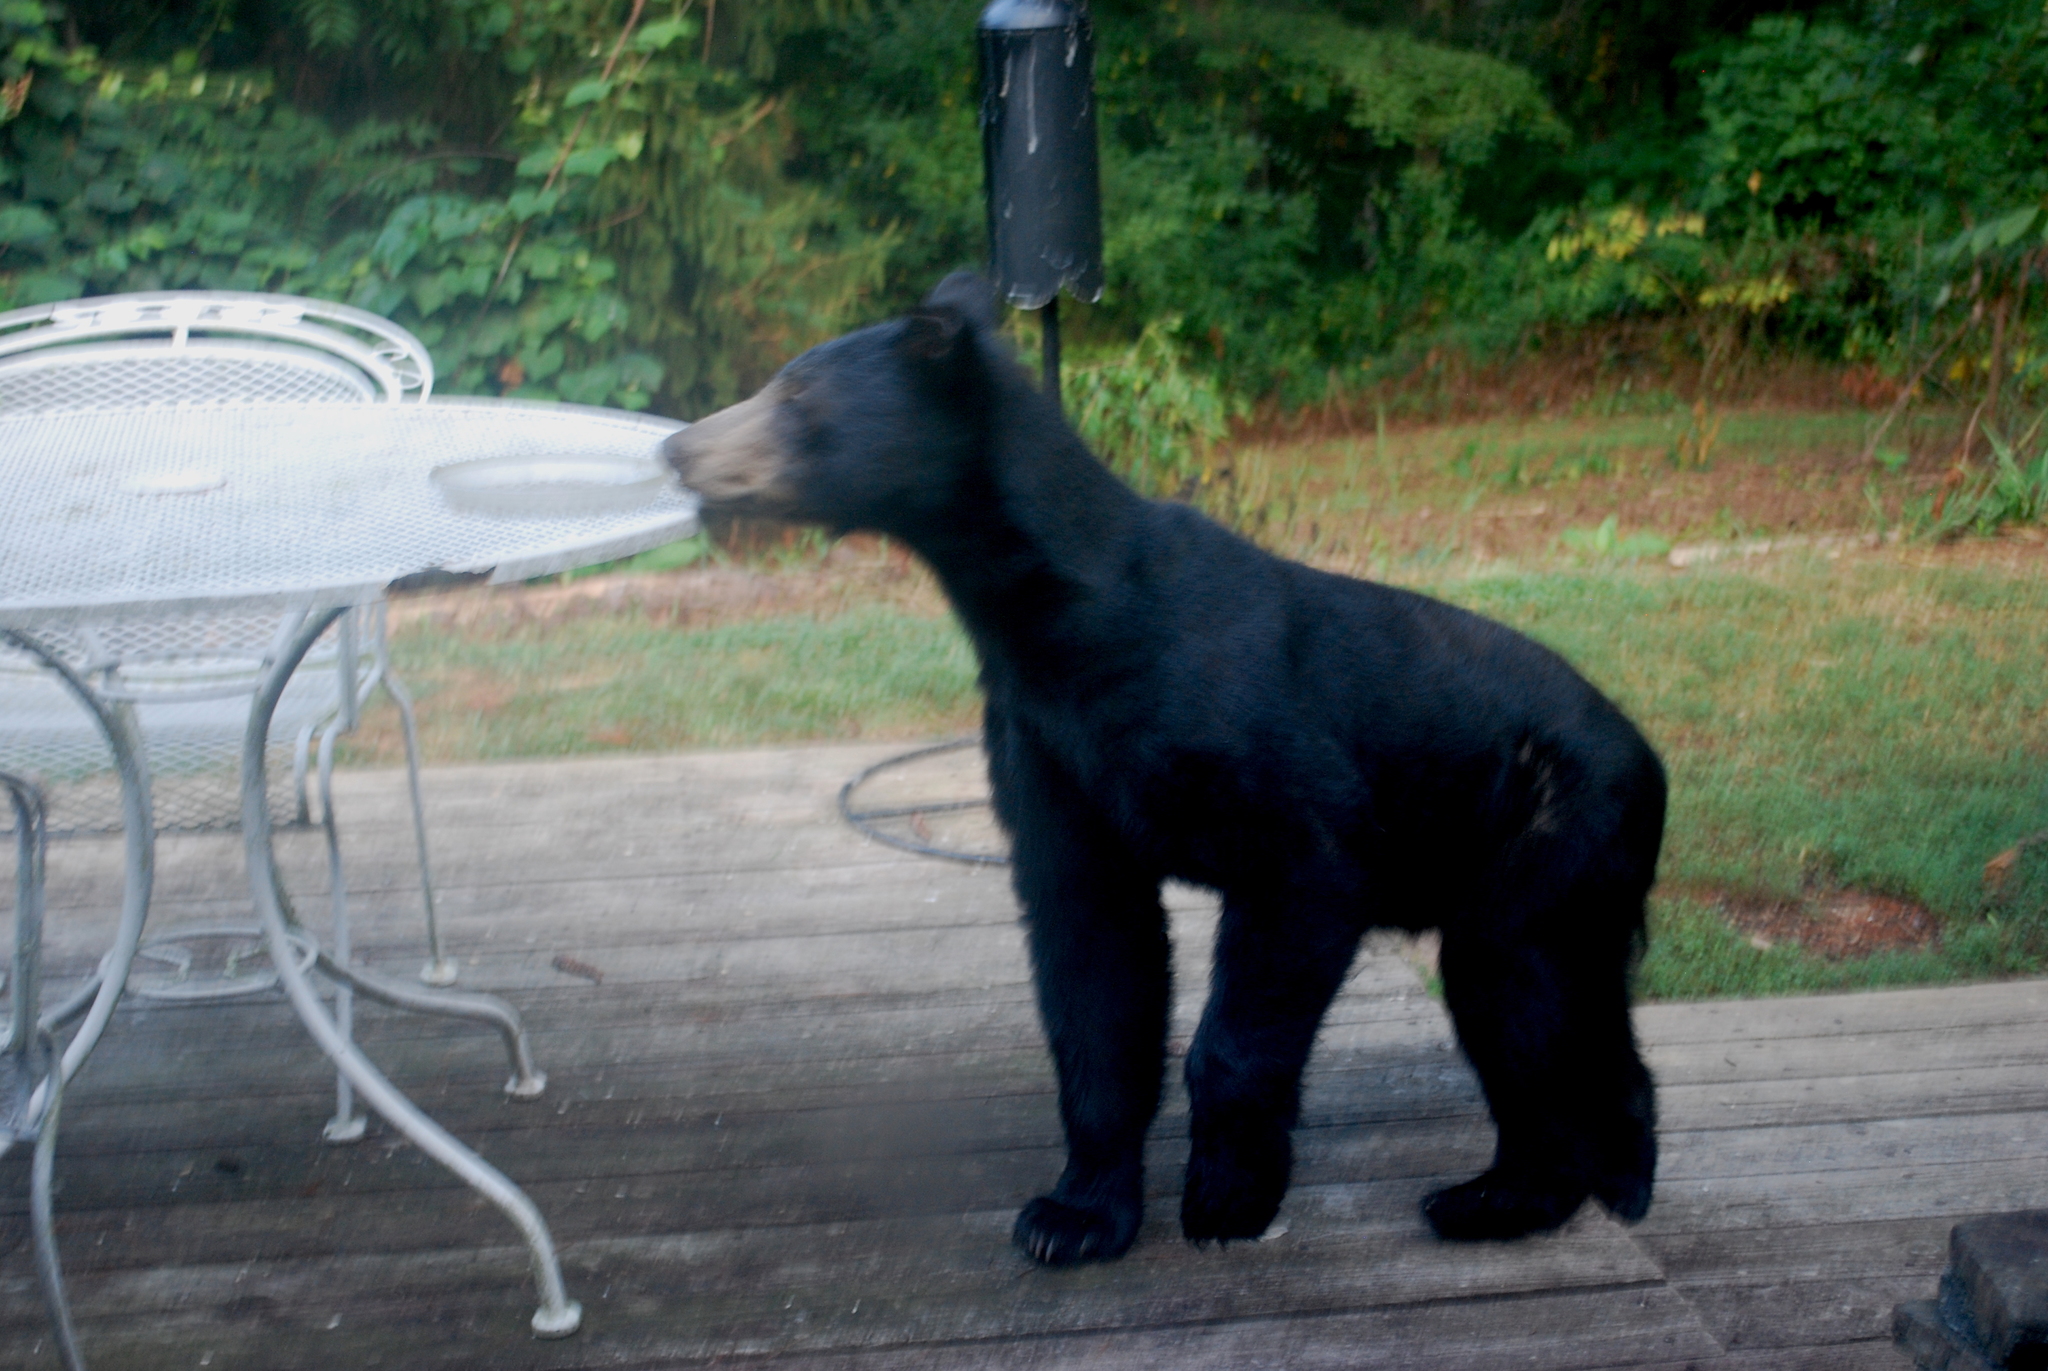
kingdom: Animalia
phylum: Chordata
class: Mammalia
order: Carnivora
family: Ursidae
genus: Ursus
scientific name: Ursus americanus
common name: American black bear
